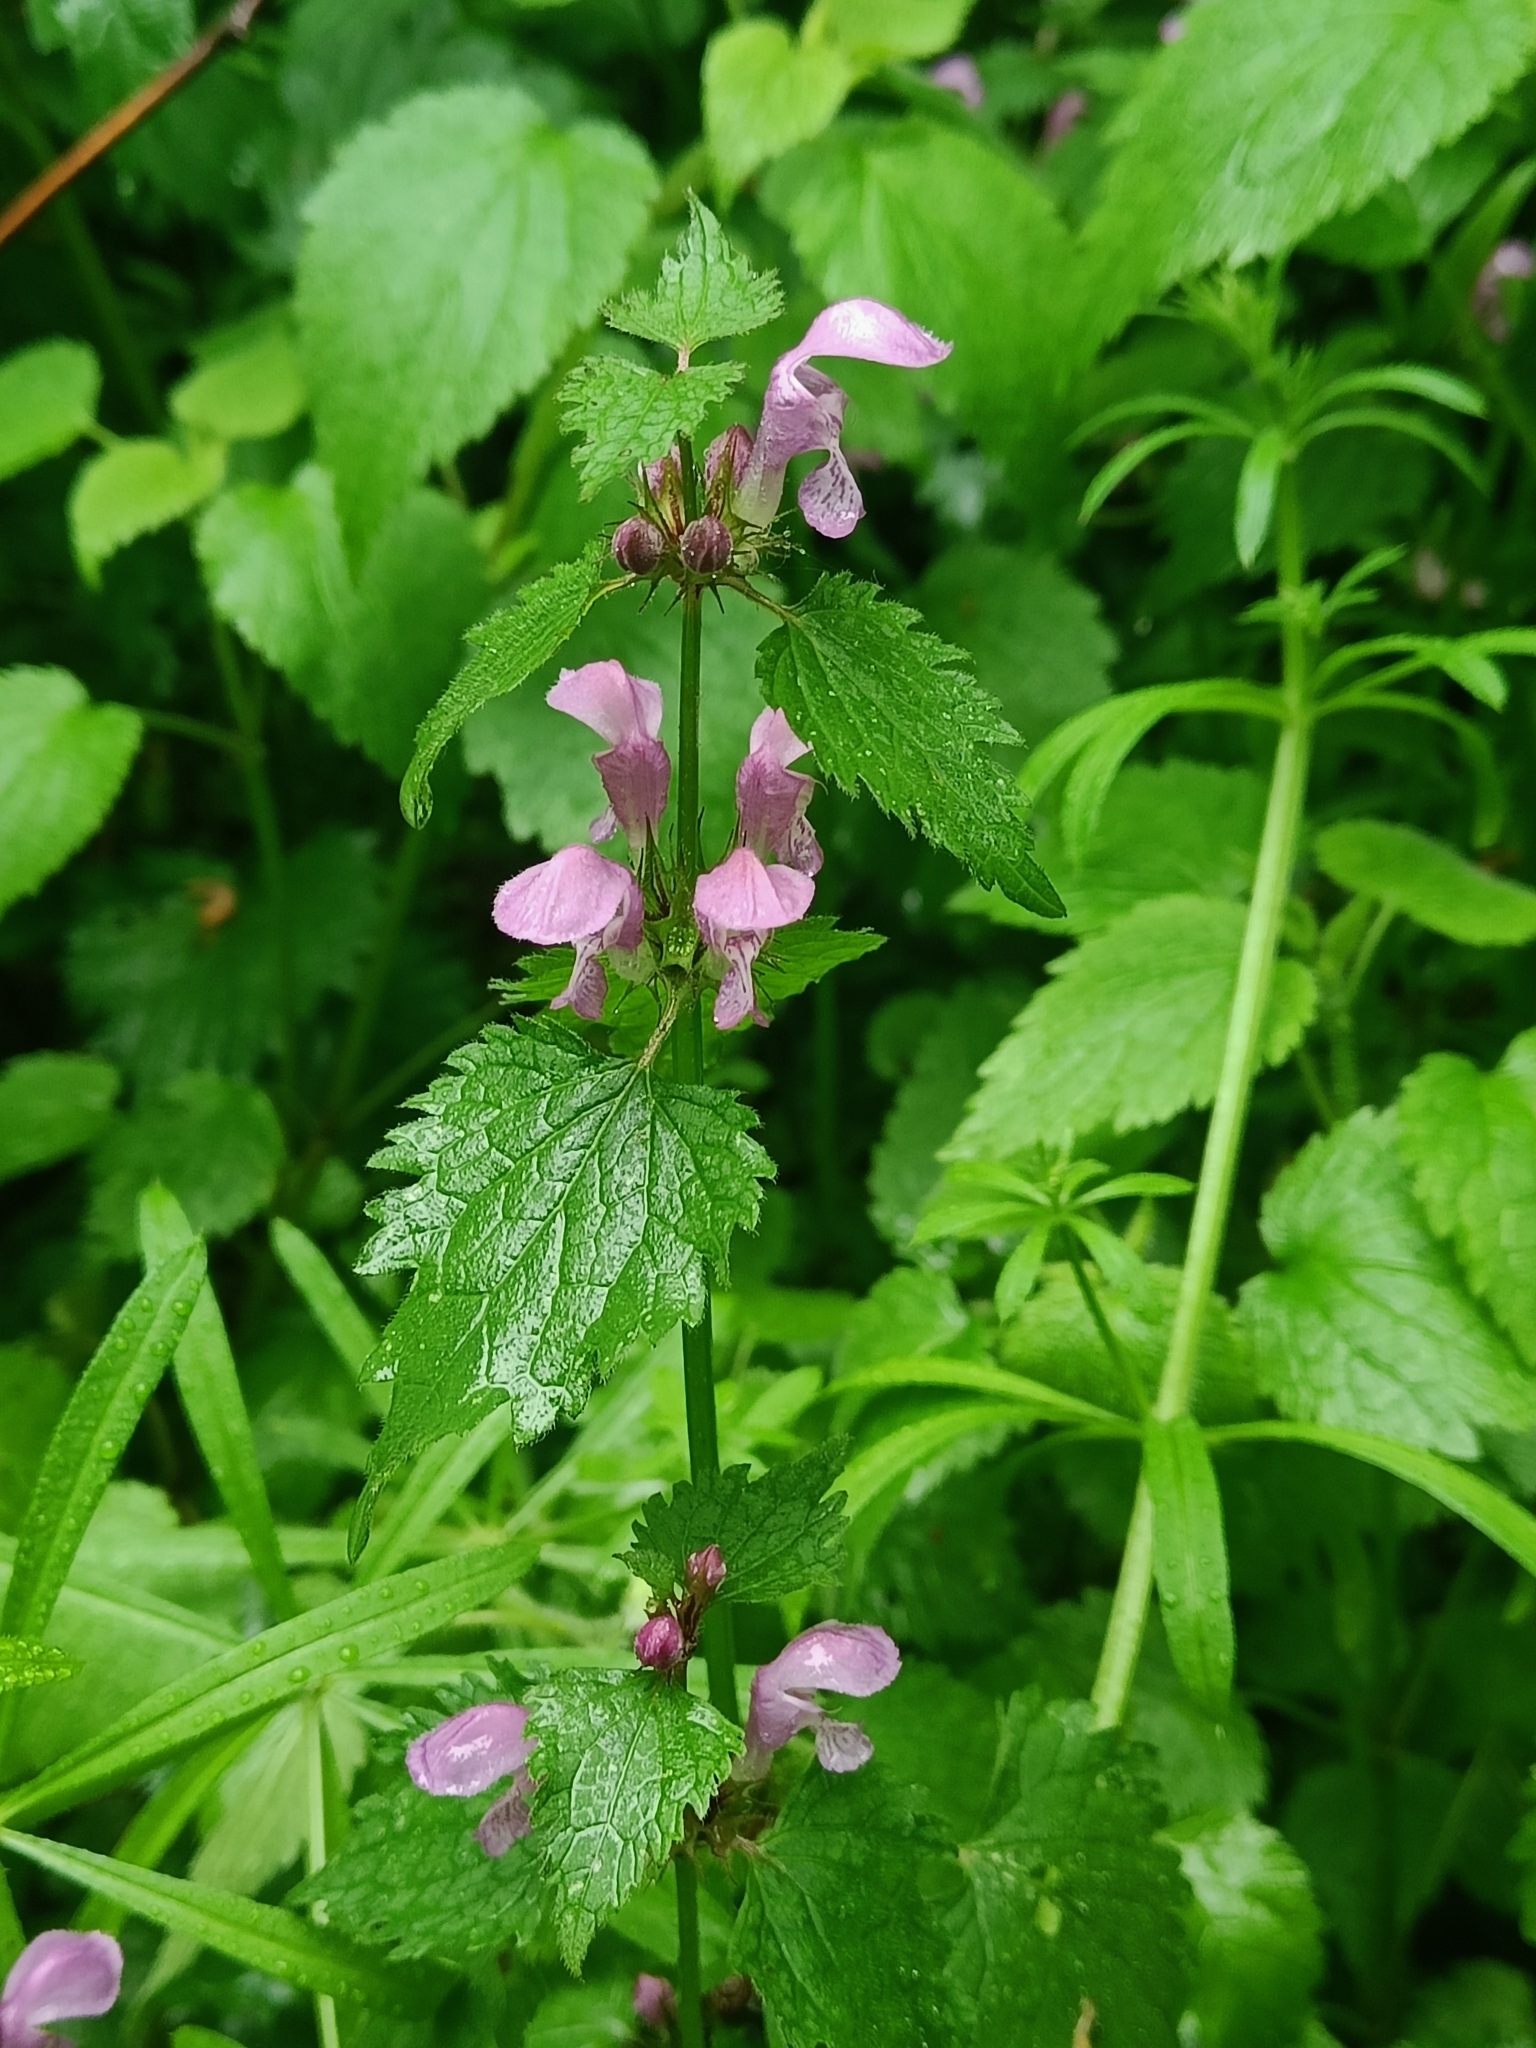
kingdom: Plantae
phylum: Tracheophyta
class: Magnoliopsida
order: Lamiales
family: Lamiaceae
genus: Lamium
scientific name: Lamium maculatum
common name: Spotted dead-nettle
